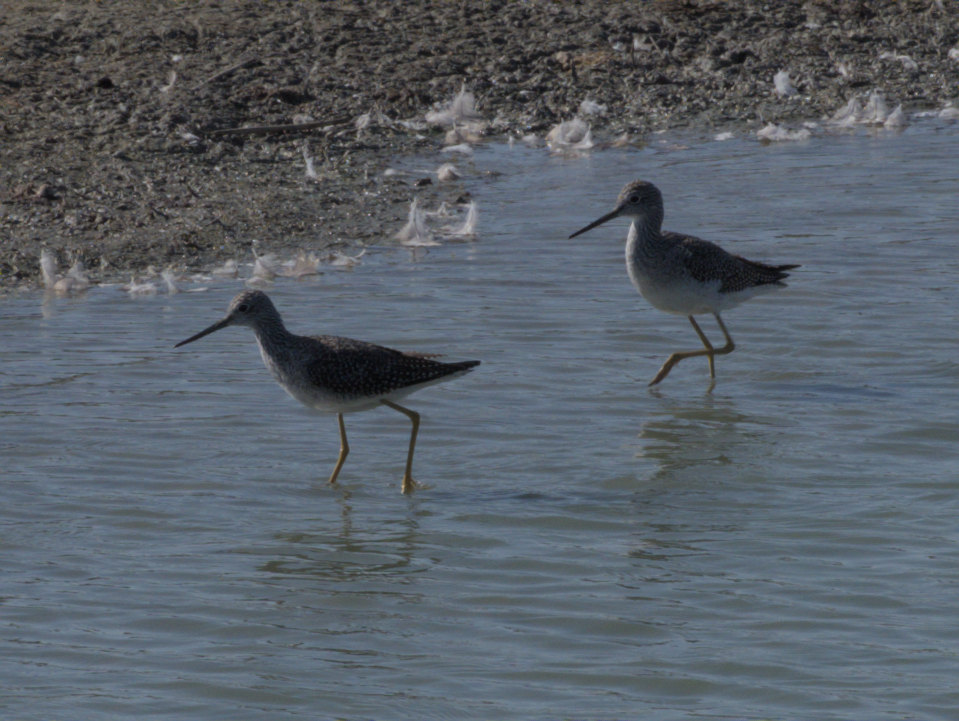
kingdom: Animalia
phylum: Chordata
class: Aves
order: Charadriiformes
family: Scolopacidae
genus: Tringa
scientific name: Tringa melanoleuca
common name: Greater yellowlegs
